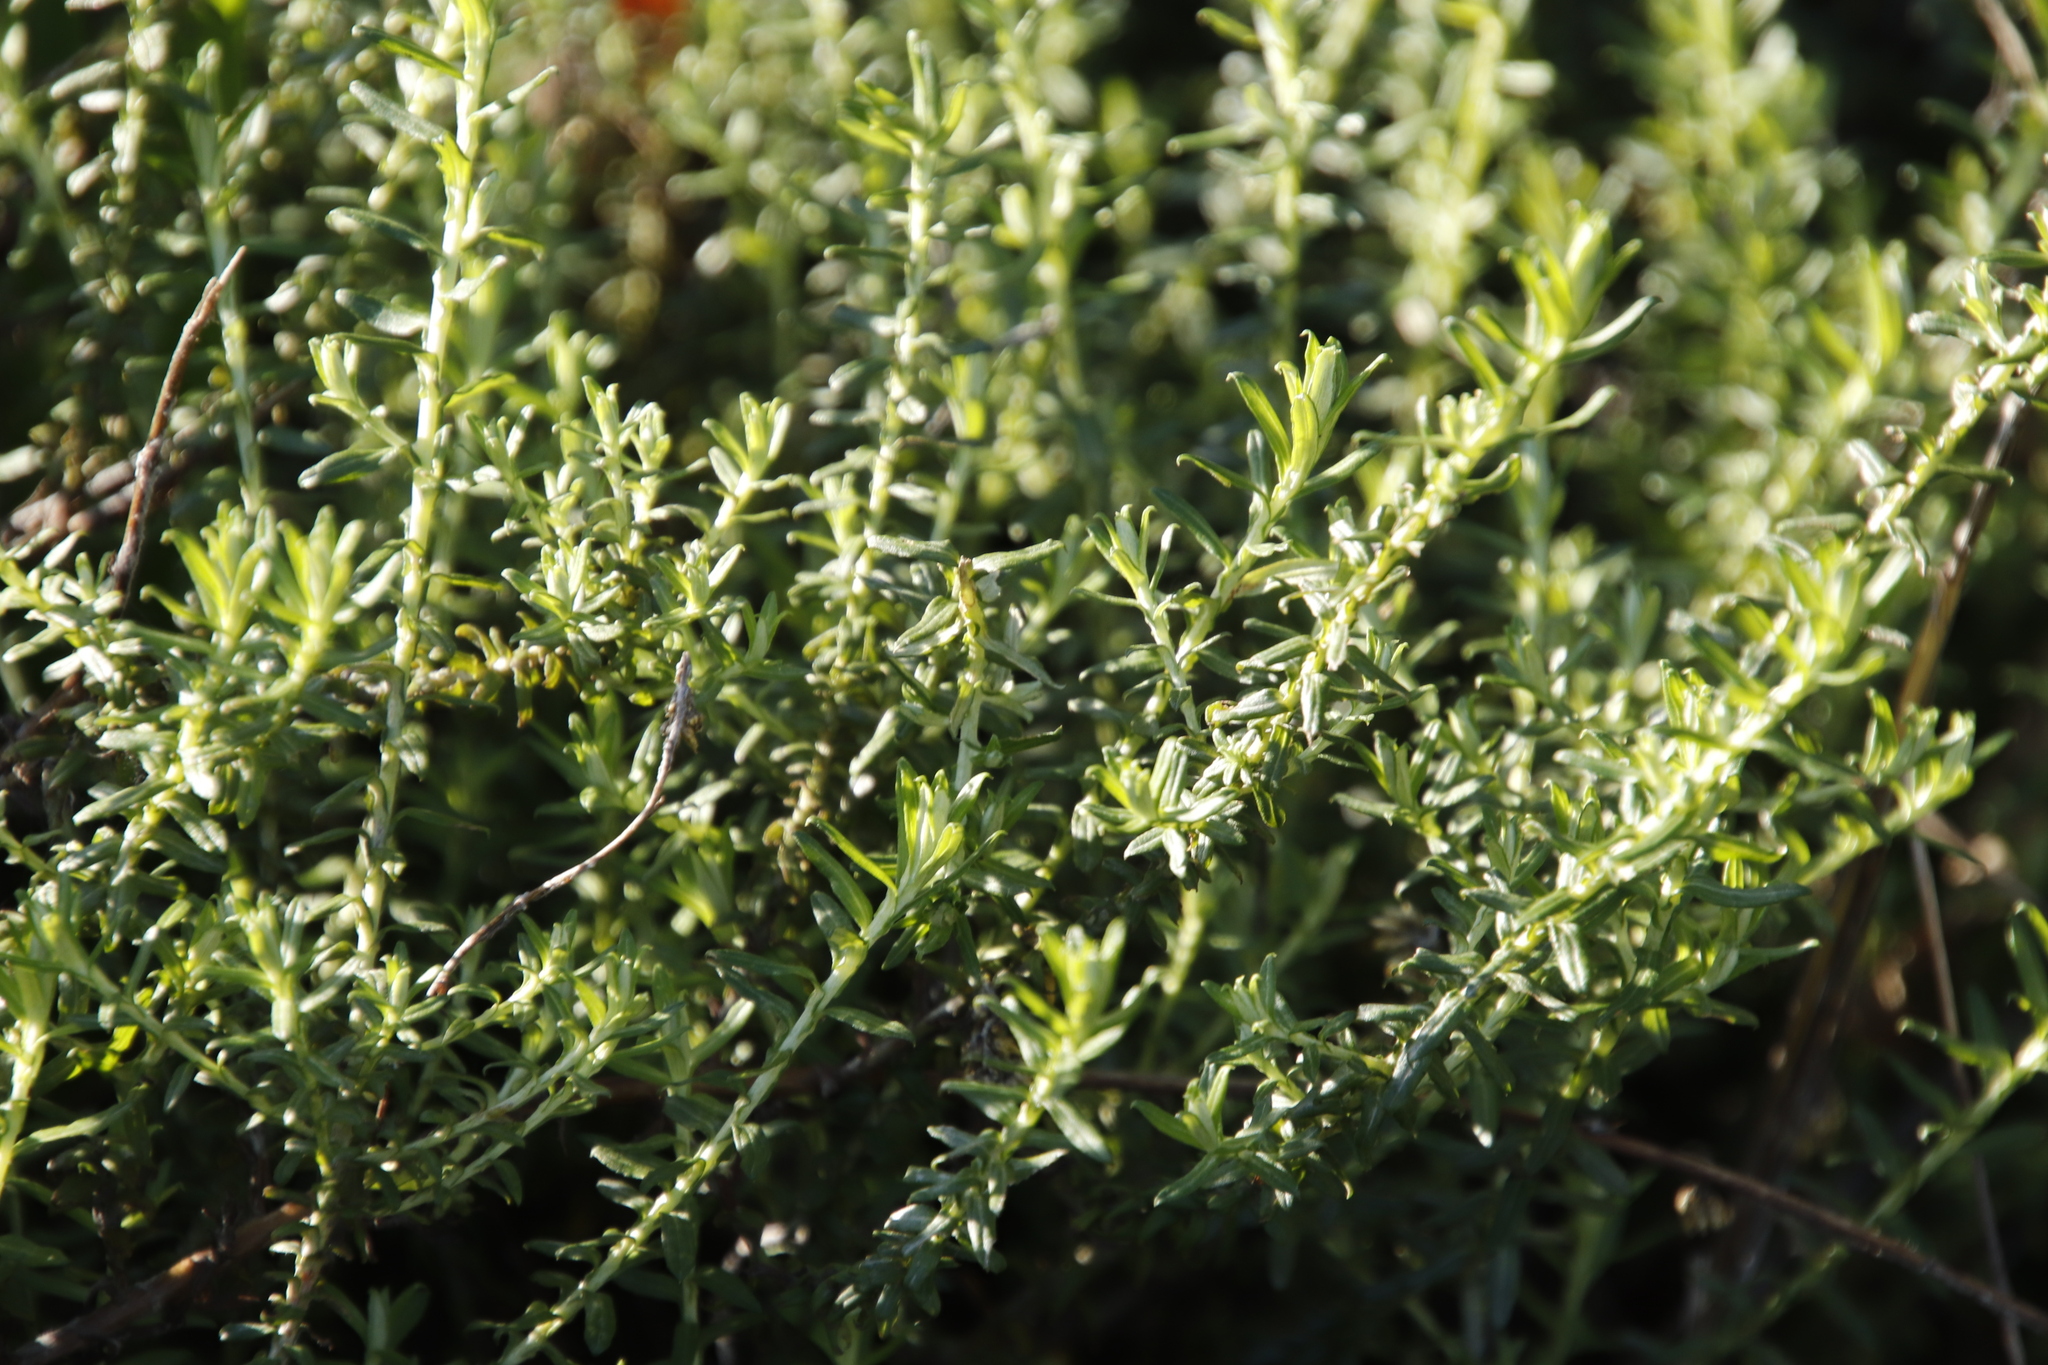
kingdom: Plantae
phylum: Tracheophyta
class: Magnoliopsida
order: Asterales
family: Asteraceae
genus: Helichrysum
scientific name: Helichrysum cymosum
